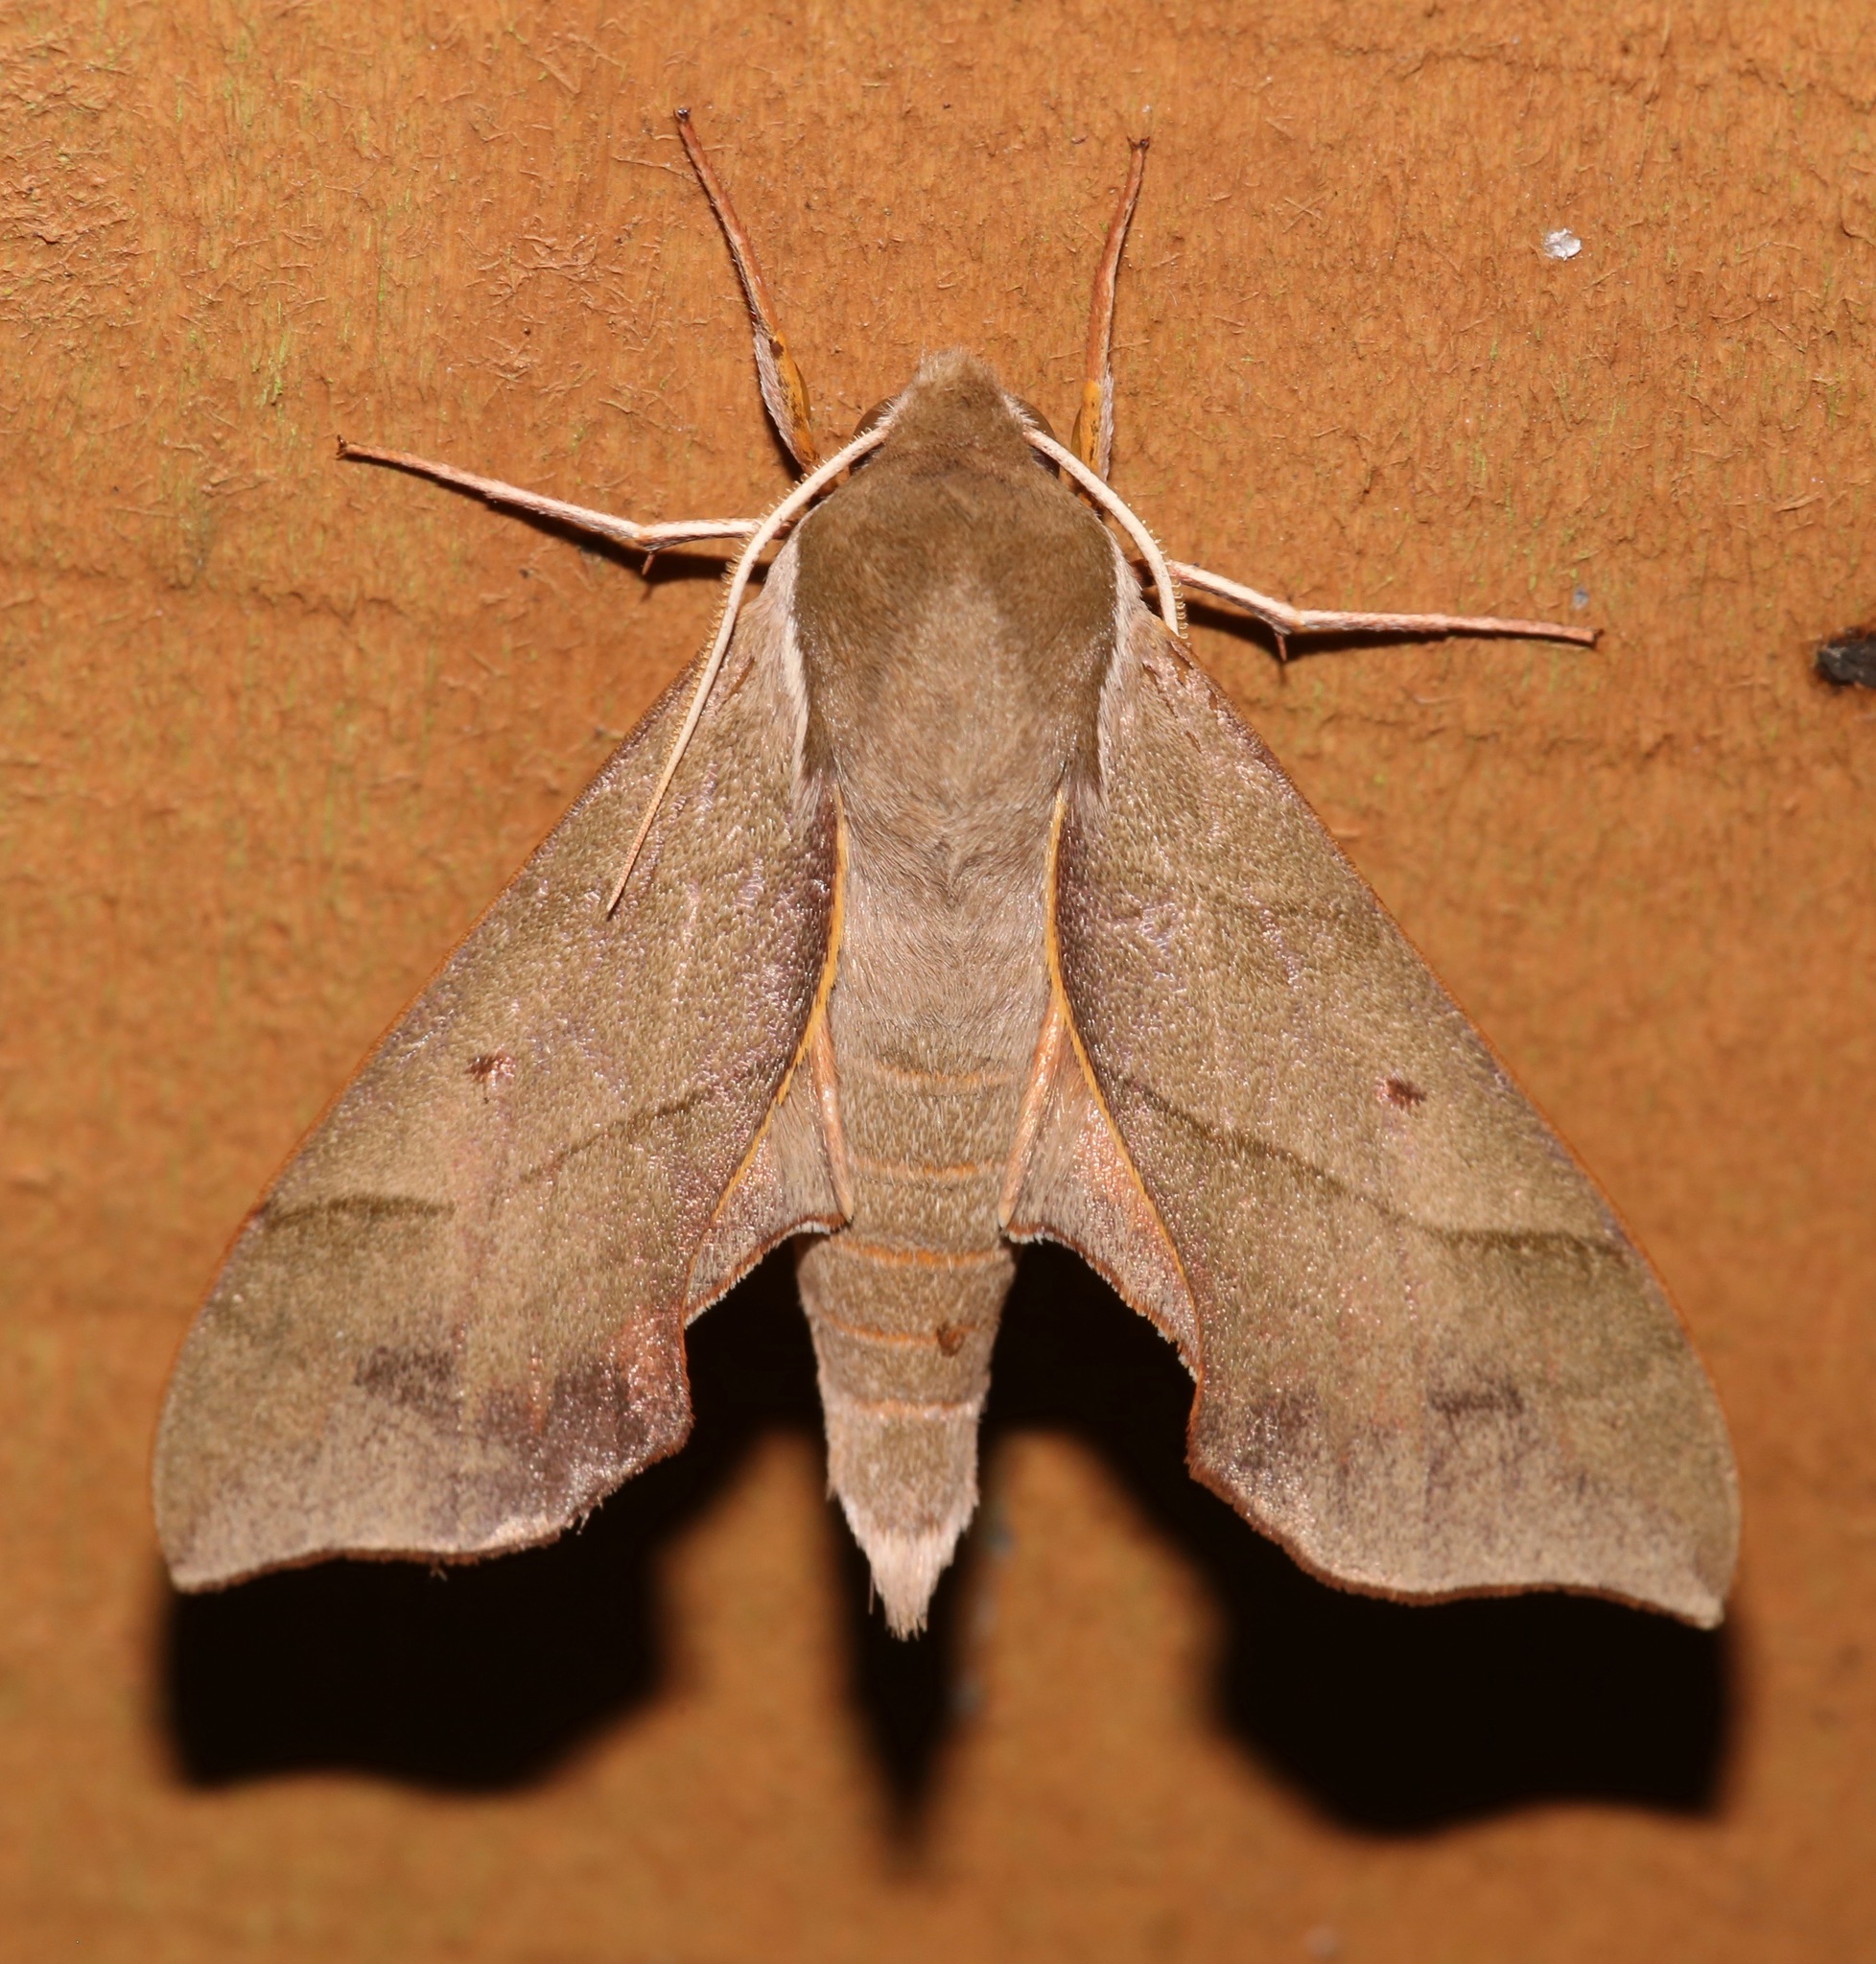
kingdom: Animalia
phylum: Arthropoda
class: Insecta
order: Lepidoptera
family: Sphingidae
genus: Darapsa
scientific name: Darapsa myron
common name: Hog sphinx
